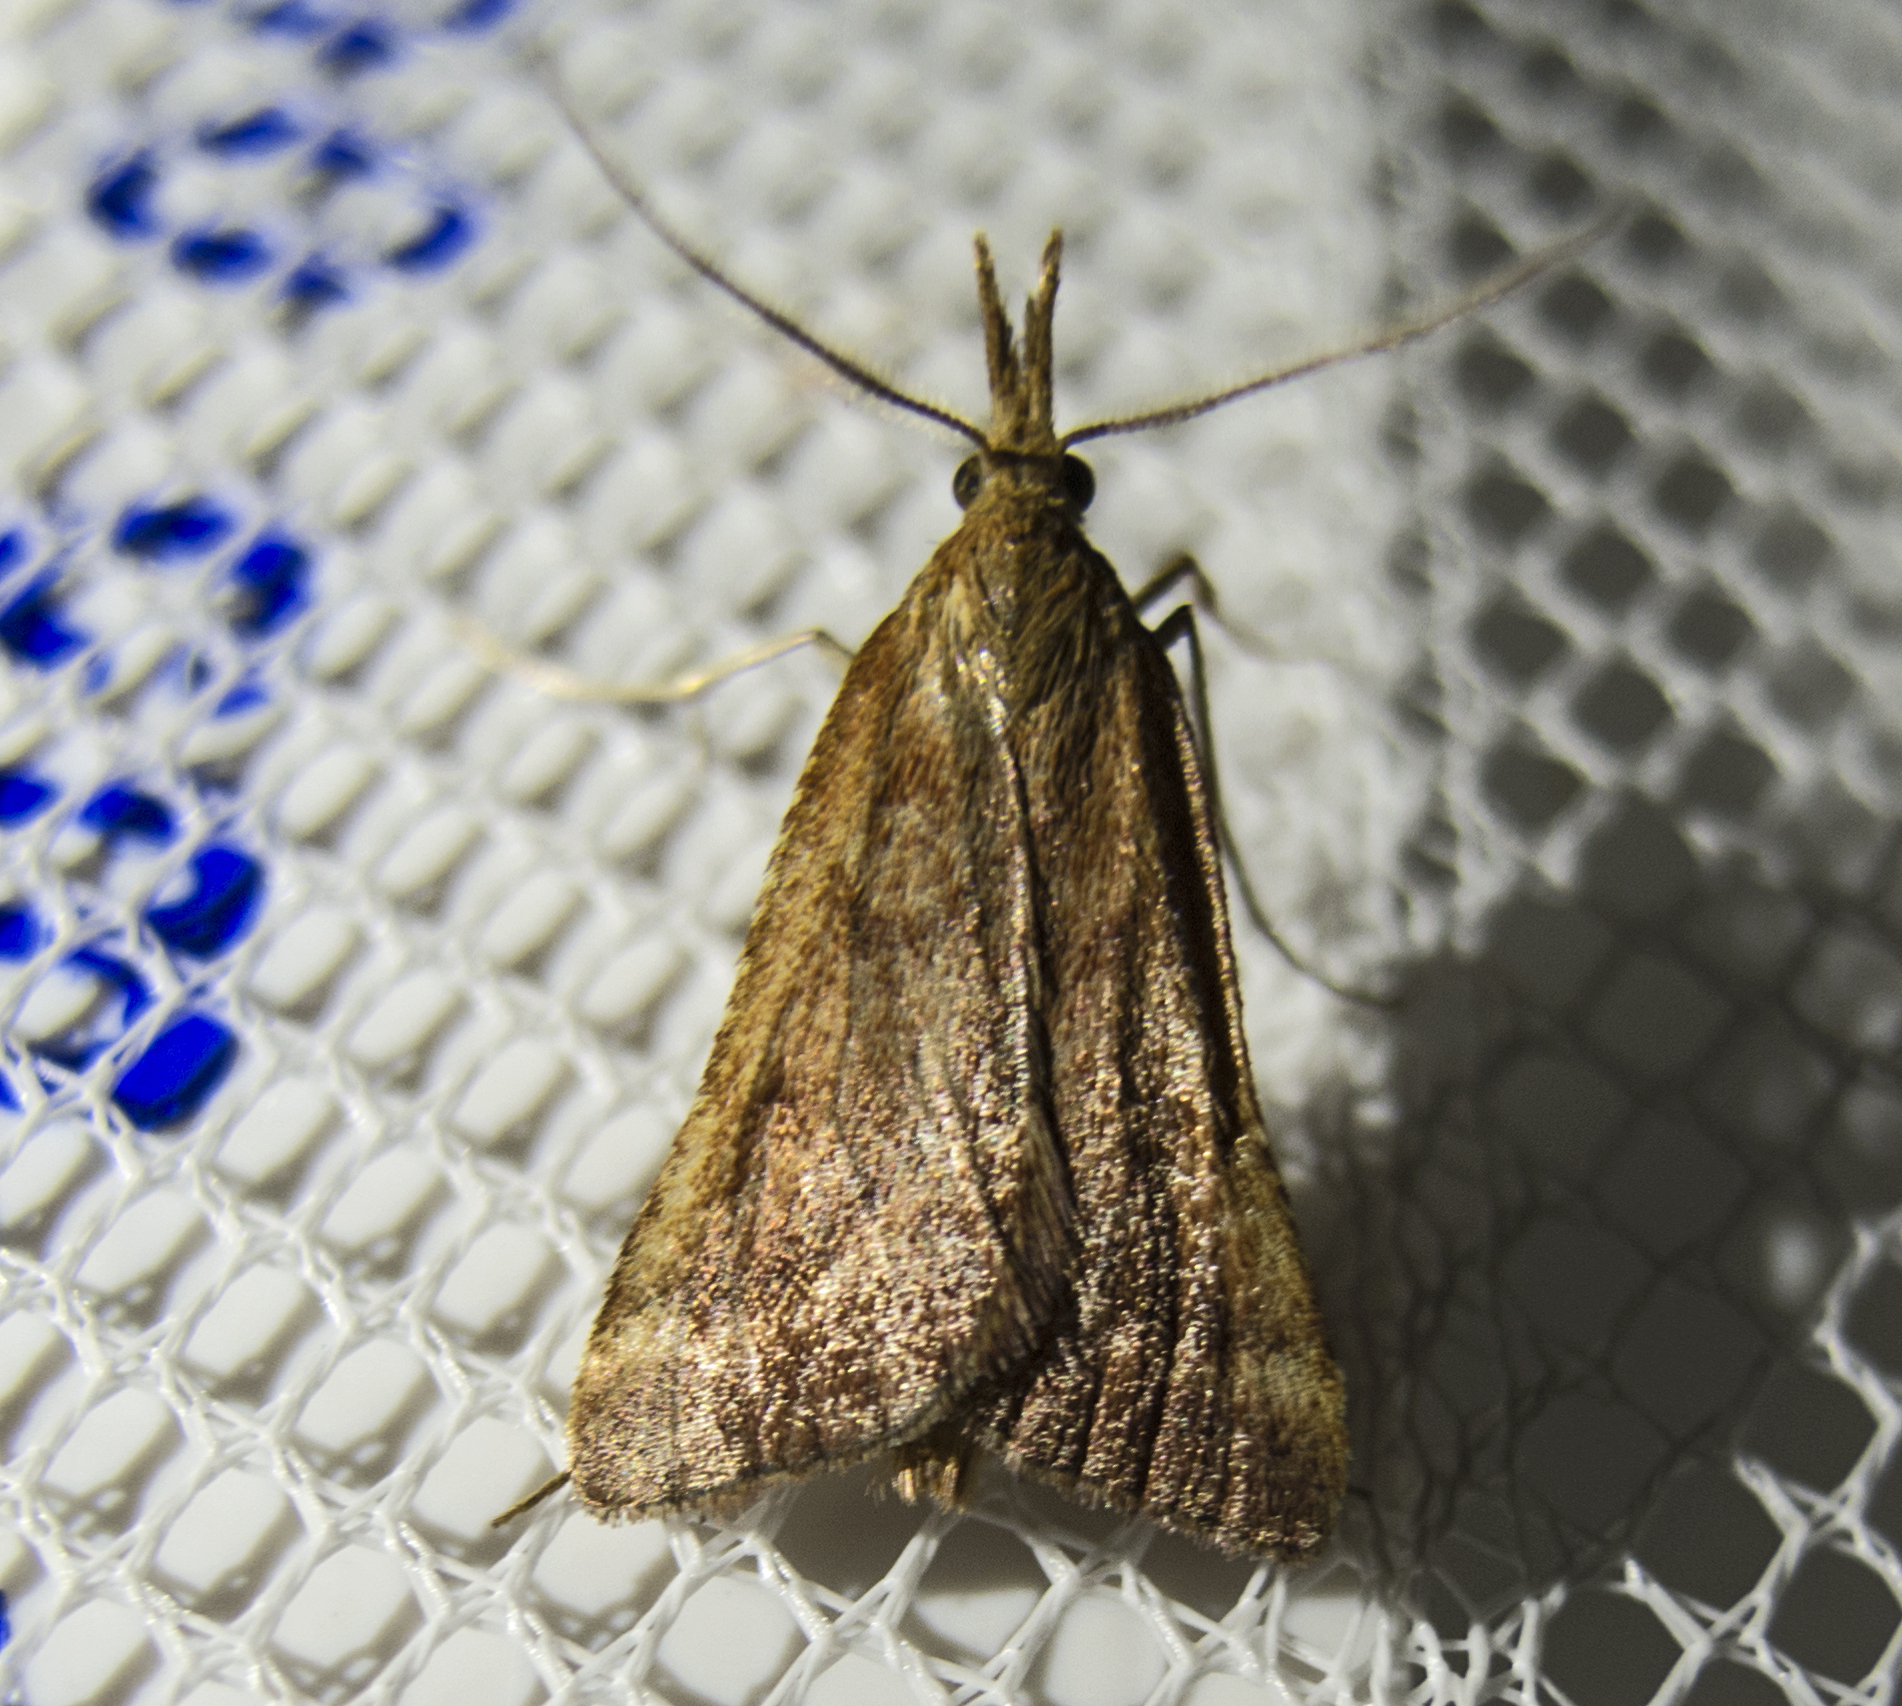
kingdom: Animalia
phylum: Arthropoda
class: Insecta
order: Lepidoptera
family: Pyralidae
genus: Synaphe
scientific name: Synaphe punctalis
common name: Long-legged tabby
